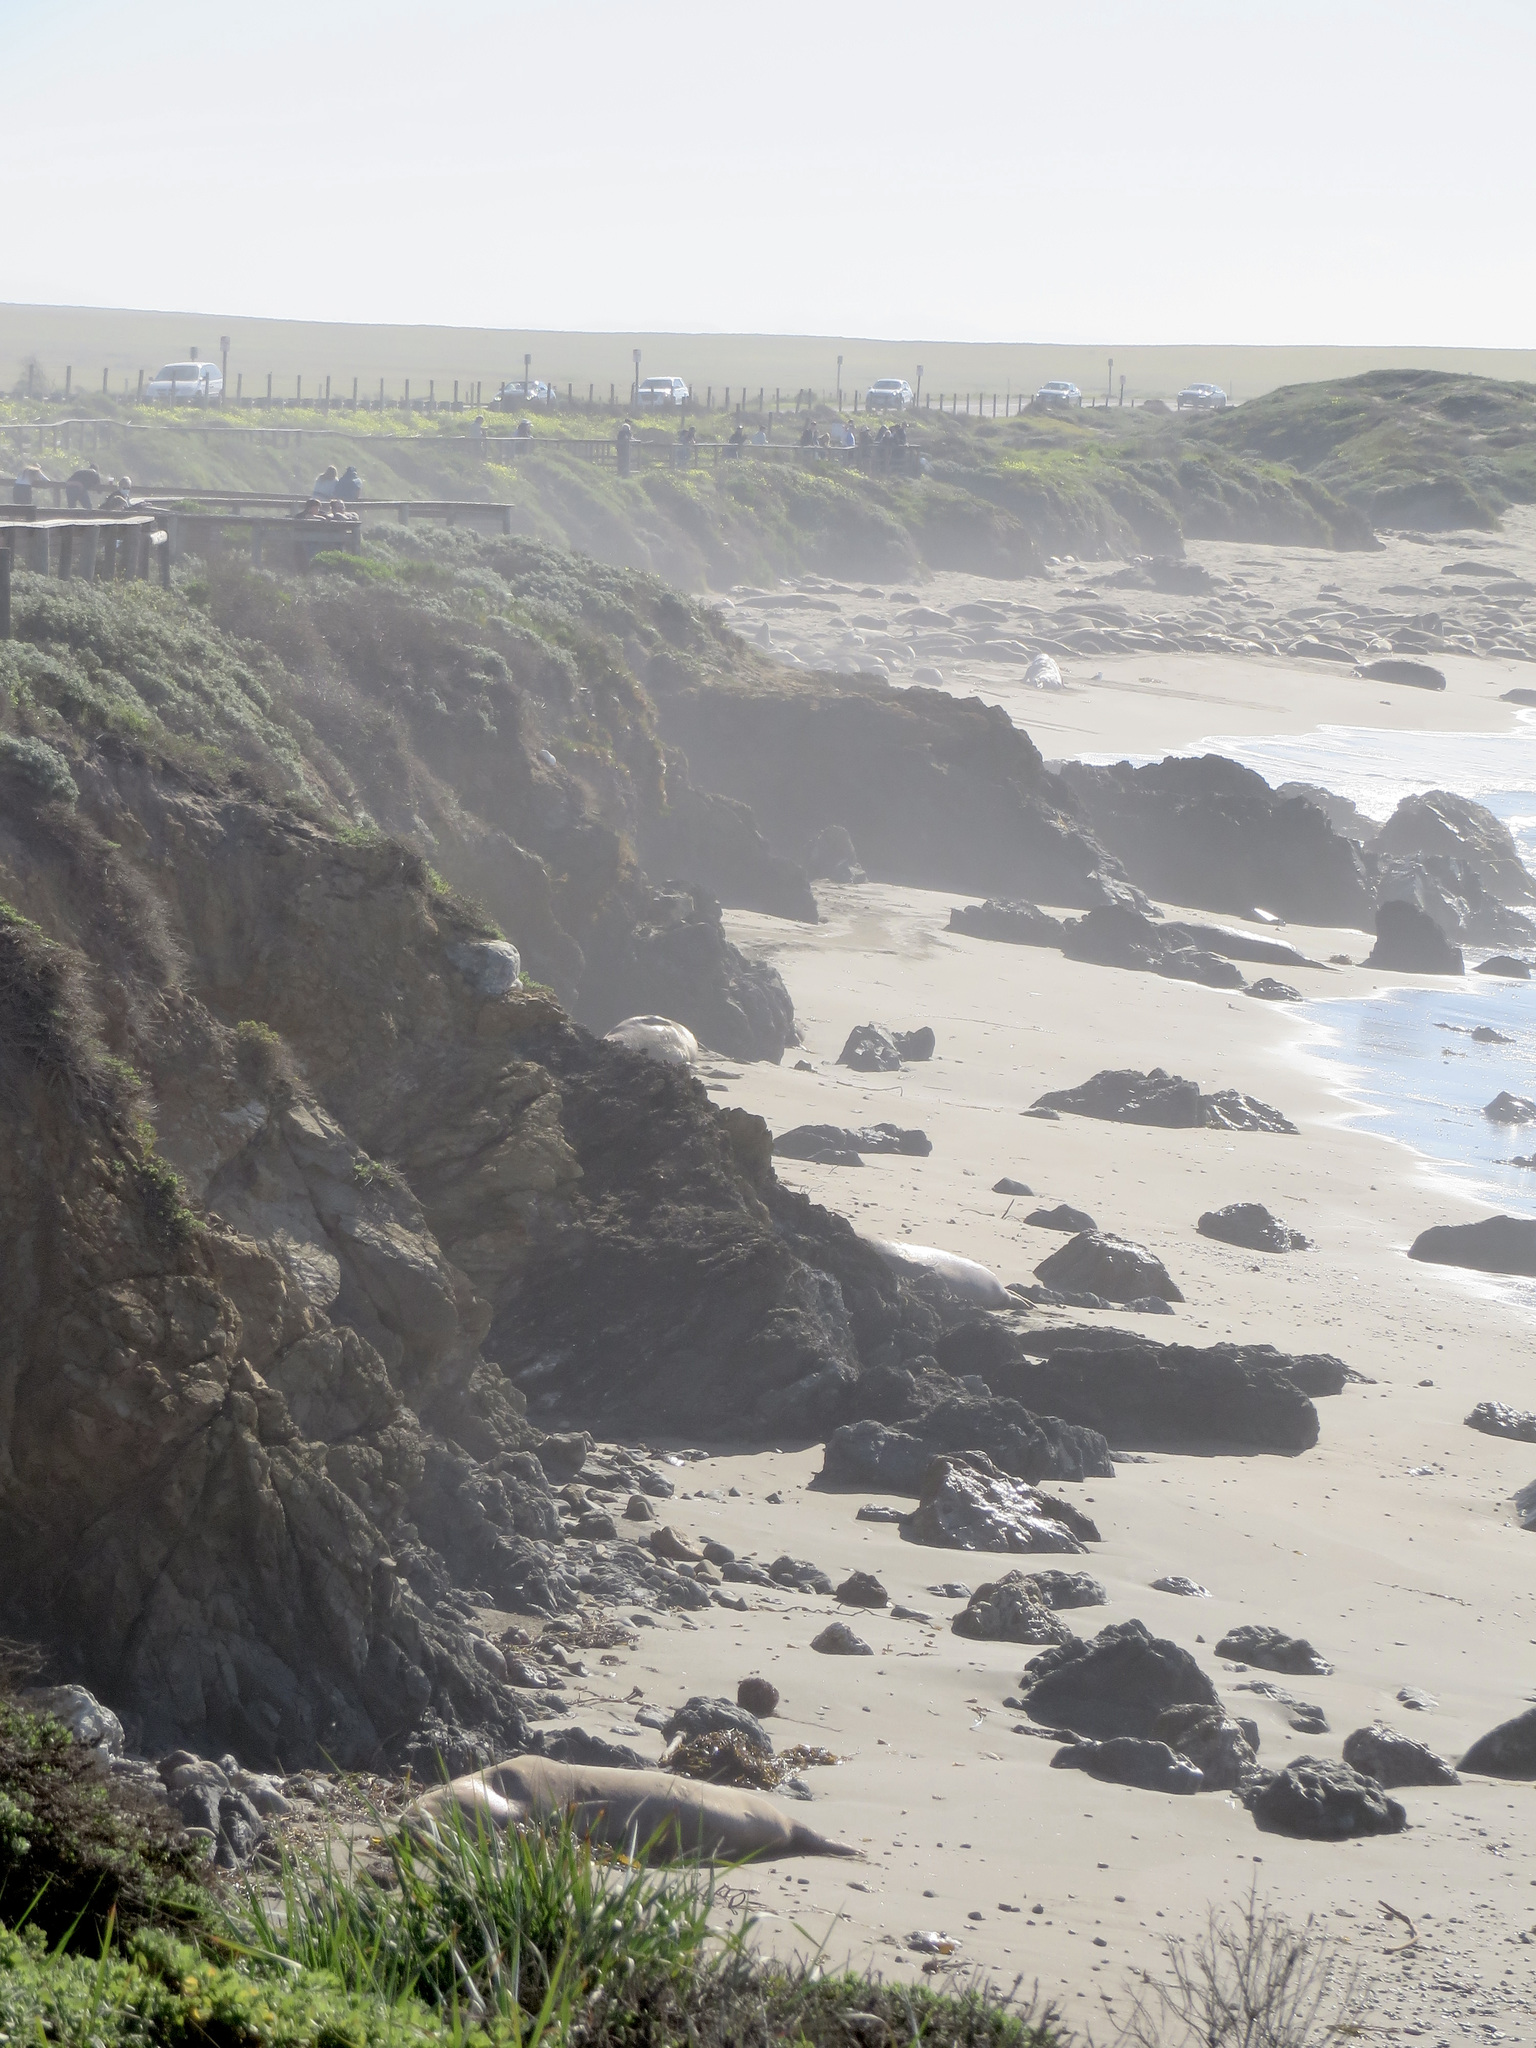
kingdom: Animalia
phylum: Chordata
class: Mammalia
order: Carnivora
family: Phocidae
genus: Mirounga
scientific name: Mirounga angustirostris
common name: Northern elephant seal
